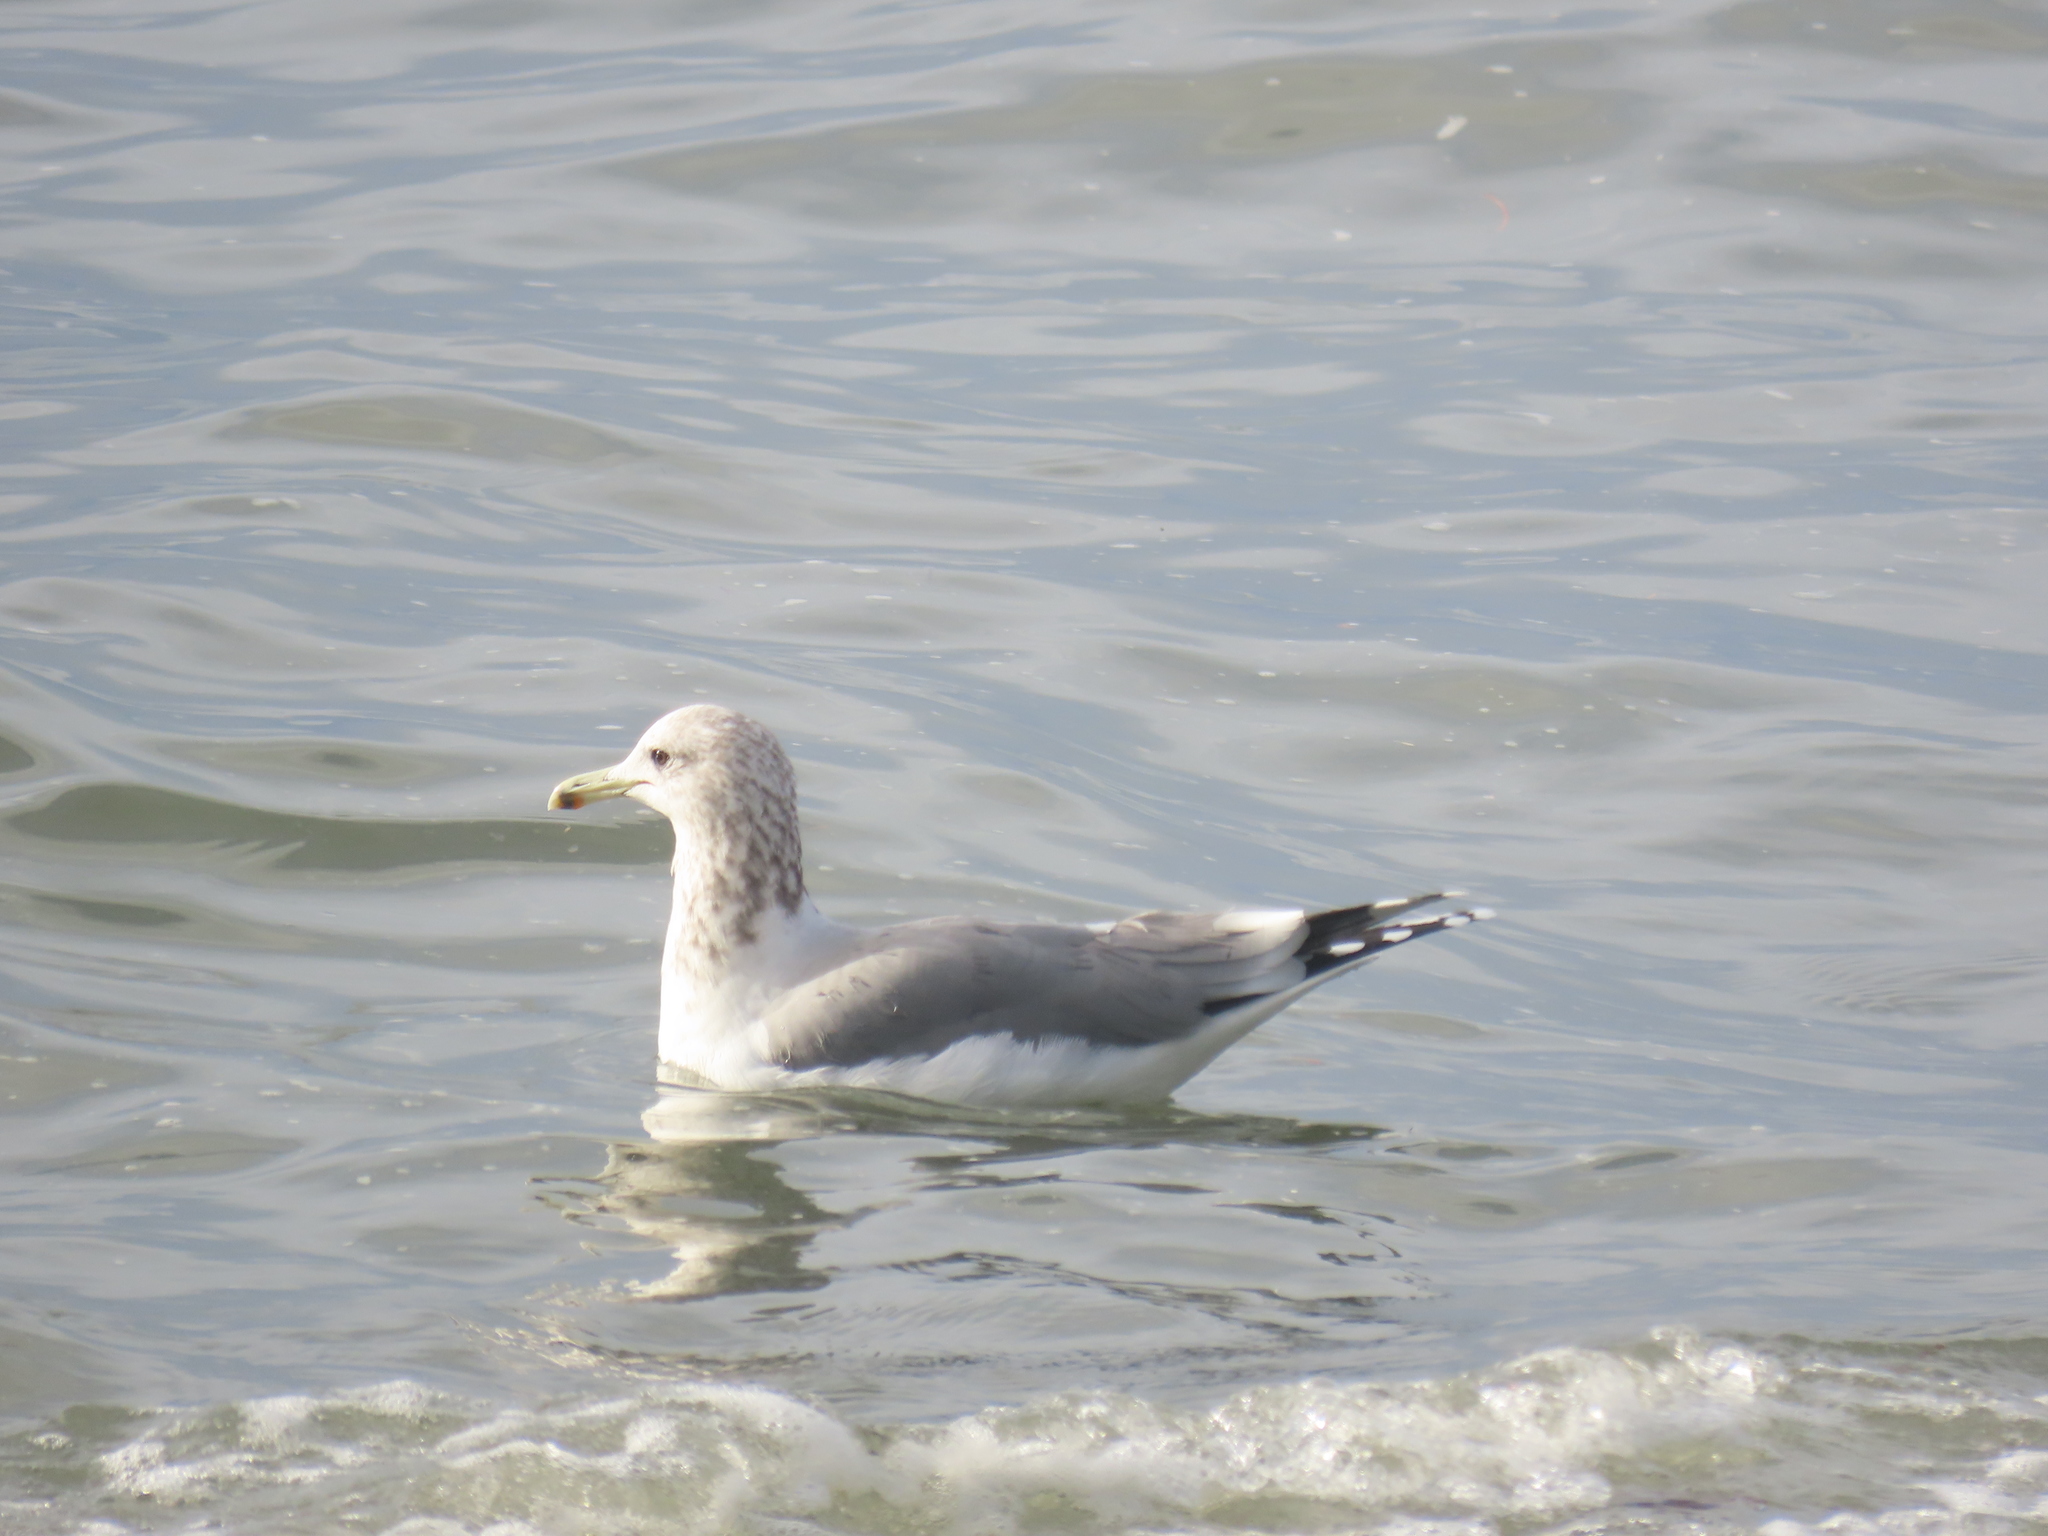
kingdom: Animalia
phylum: Chordata
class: Aves
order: Charadriiformes
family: Laridae
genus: Larus
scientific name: Larus californicus
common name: California gull
